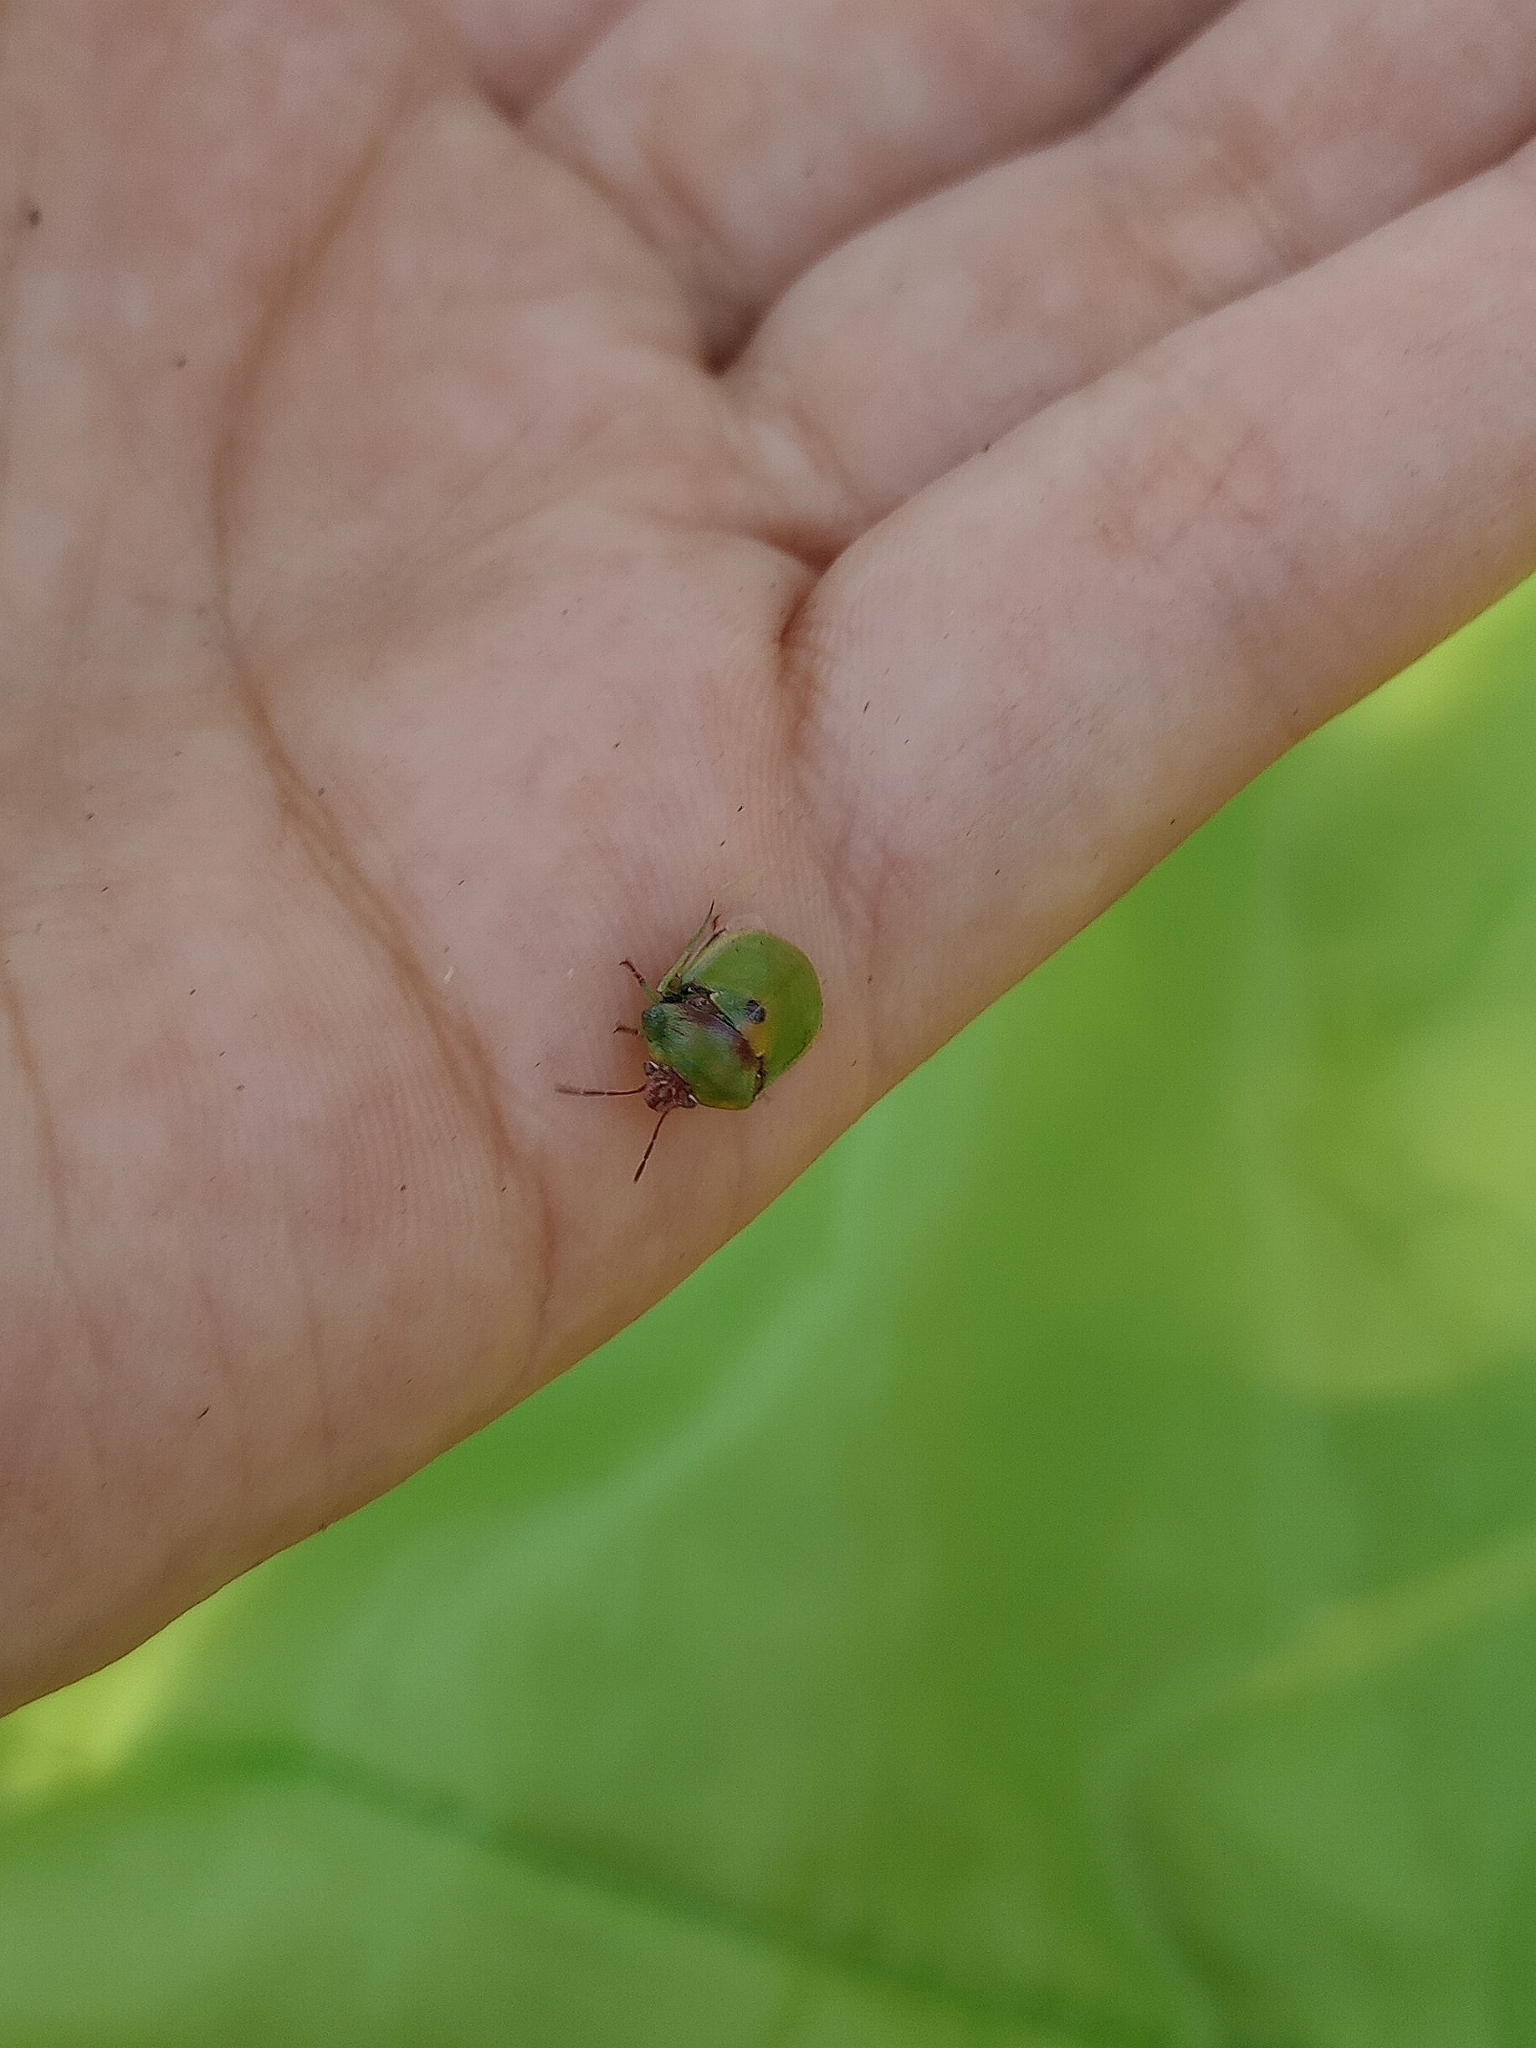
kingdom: Animalia
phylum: Arthropoda
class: Insecta
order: Hemiptera
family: Scutelleridae
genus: Misippus
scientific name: Misippus spinolae
